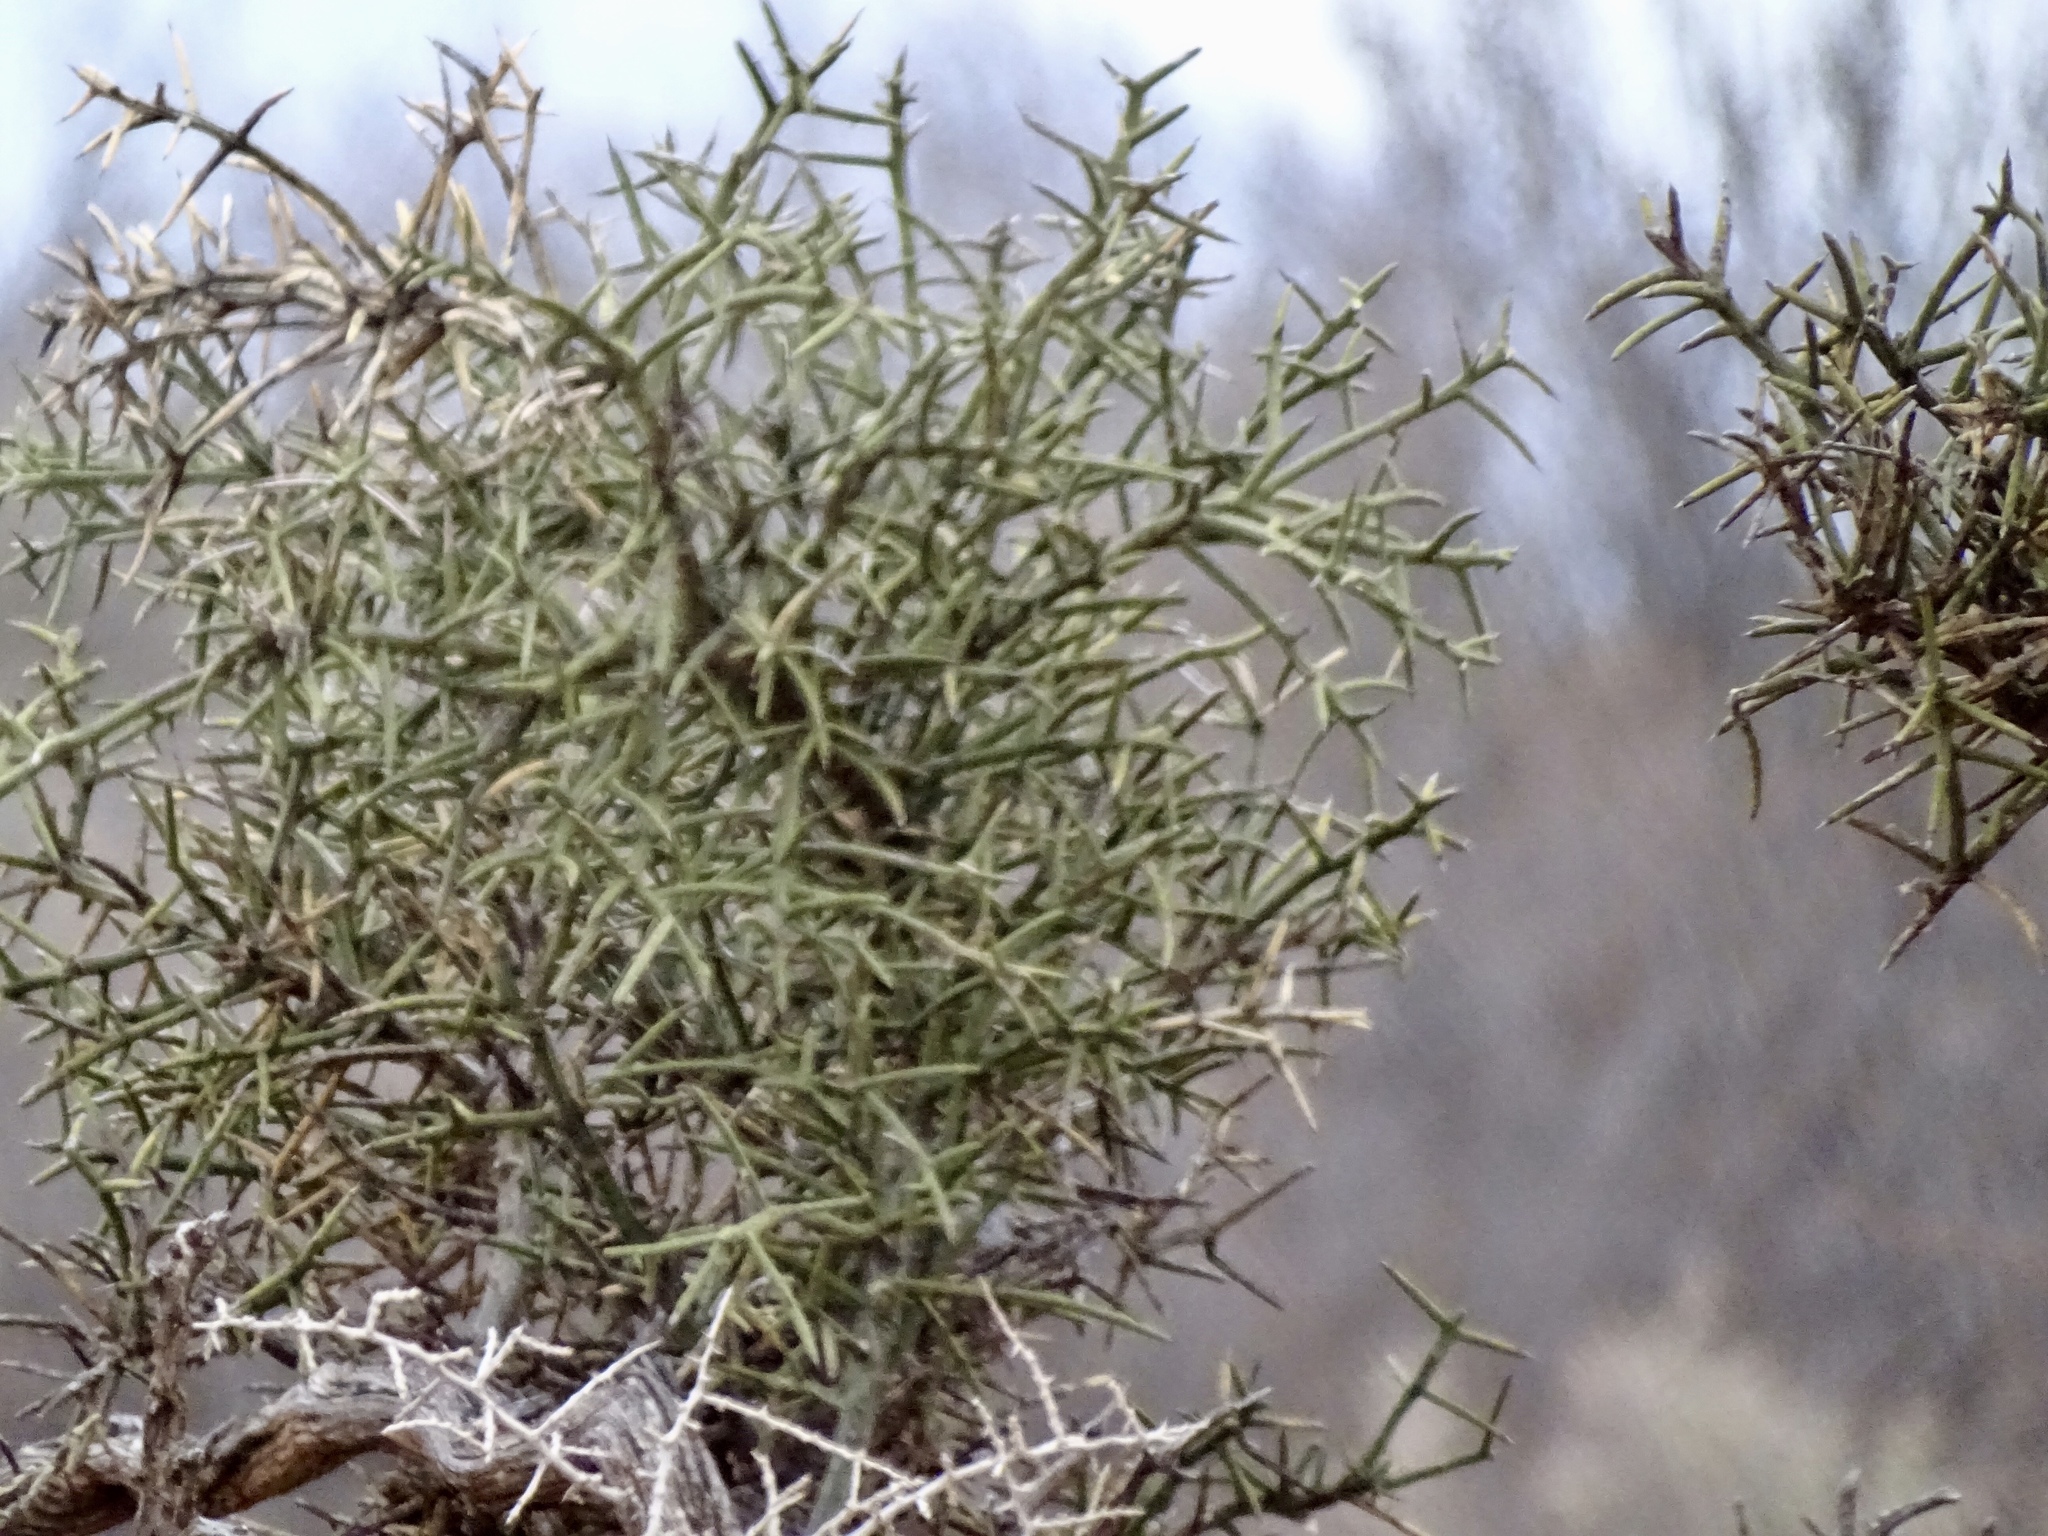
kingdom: Plantae
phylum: Tracheophyta
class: Magnoliopsida
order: Brassicales
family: Koeberliniaceae
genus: Koeberlinia
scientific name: Koeberlinia spinosa
